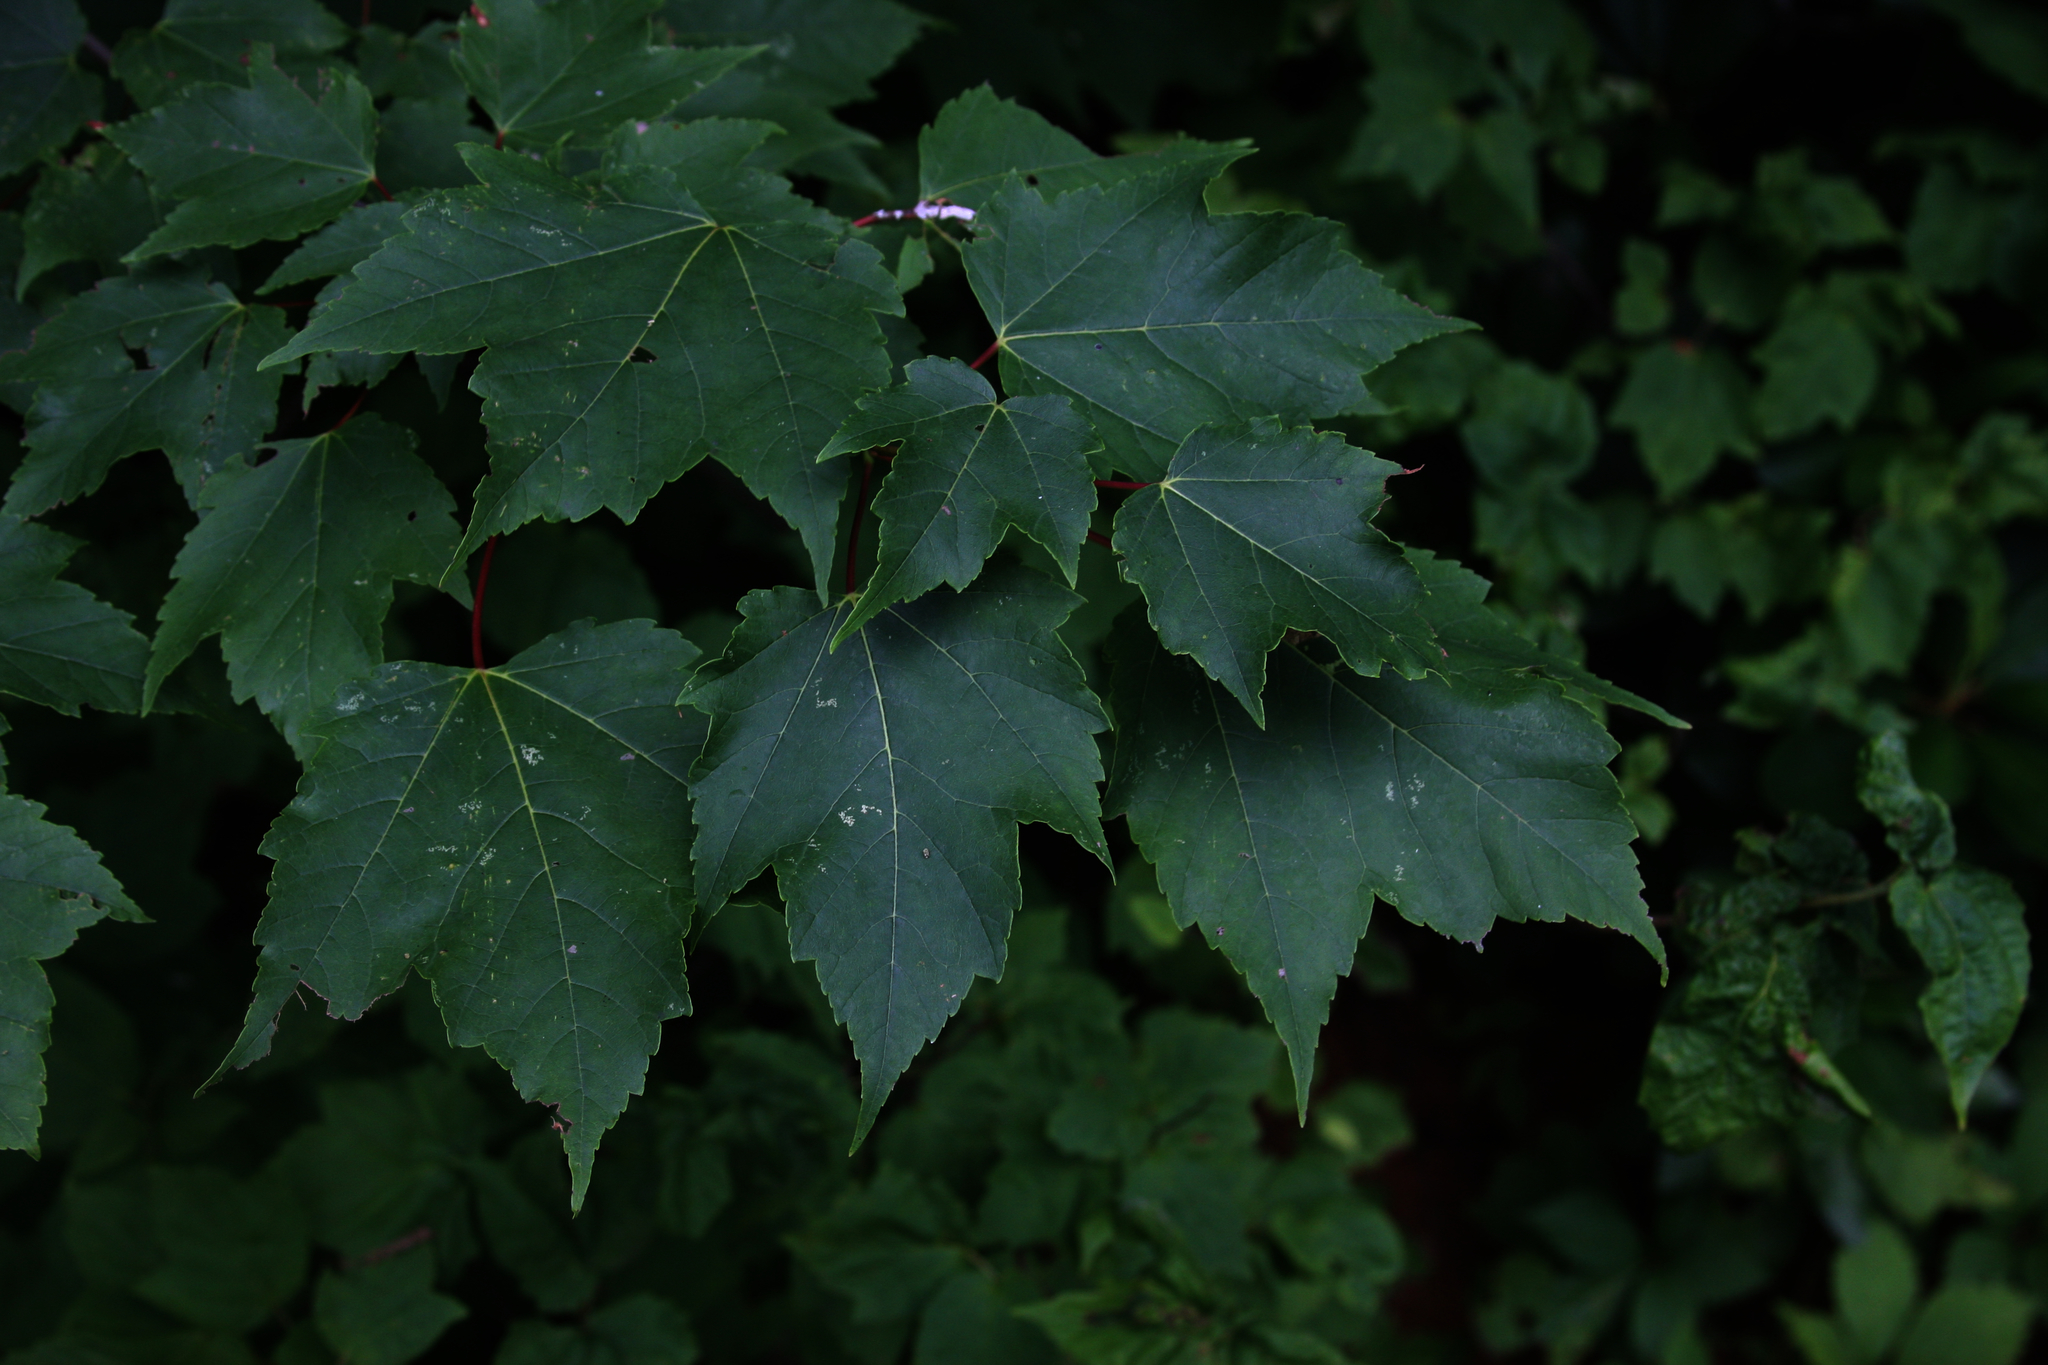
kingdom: Plantae
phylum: Tracheophyta
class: Magnoliopsida
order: Sapindales
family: Sapindaceae
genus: Acer
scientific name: Acer rubrum
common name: Red maple
